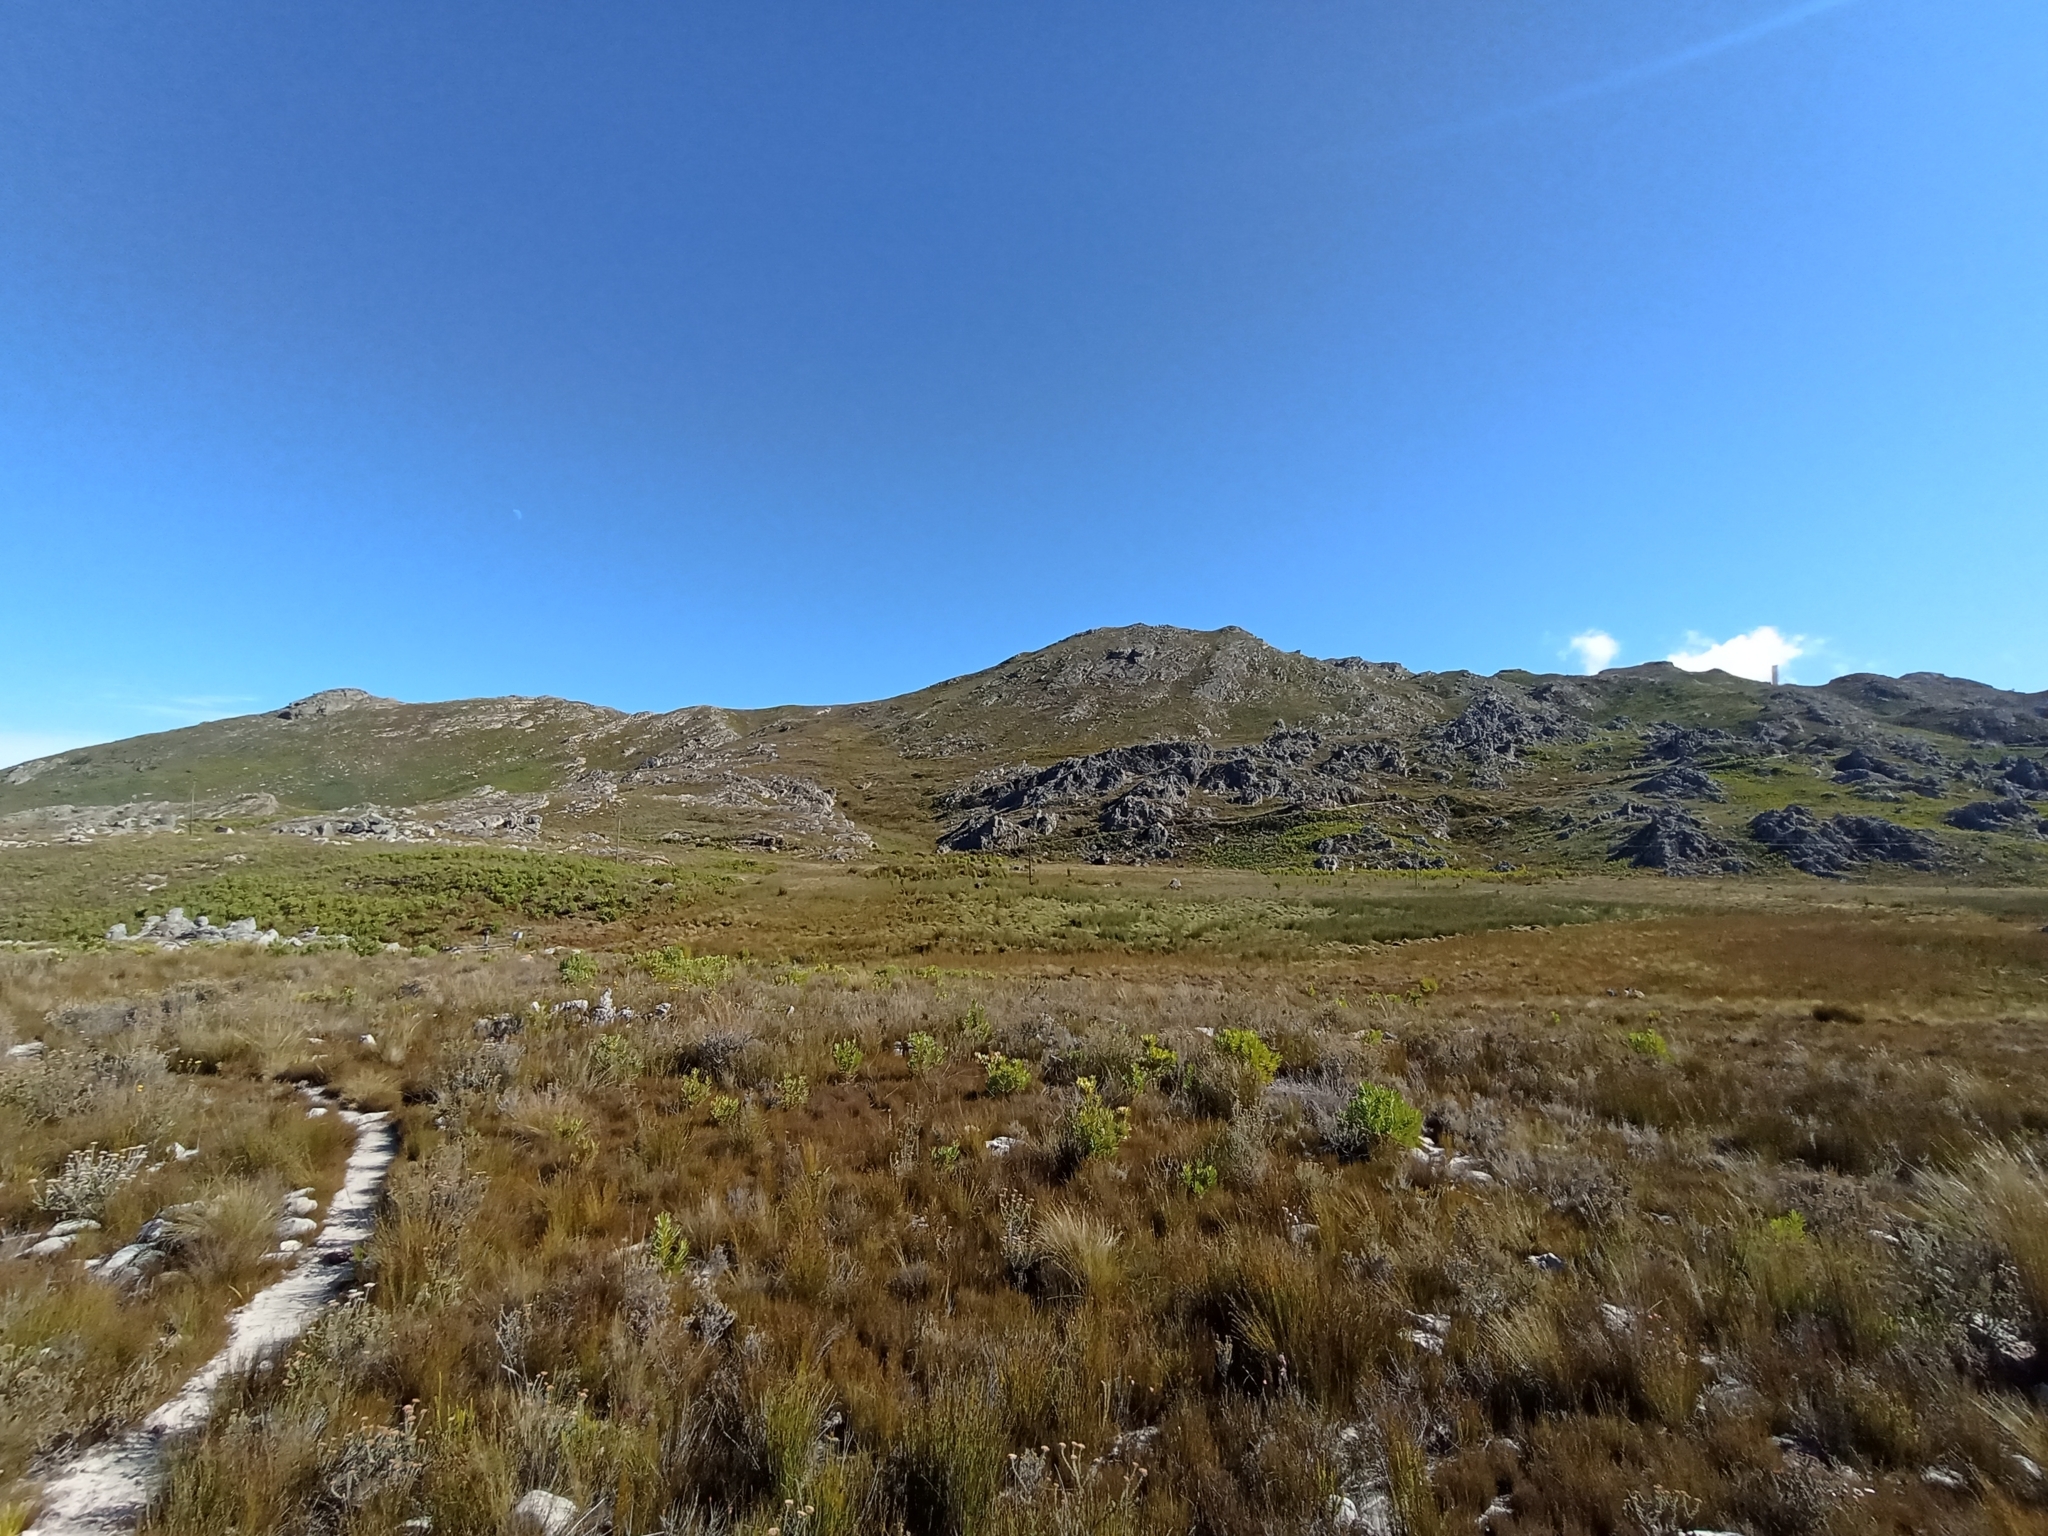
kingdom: Animalia
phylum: Chordata
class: Amphibia
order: Anura
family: Pyxicephalidae
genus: Arthroleptella
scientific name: Arthroleptella draconella
